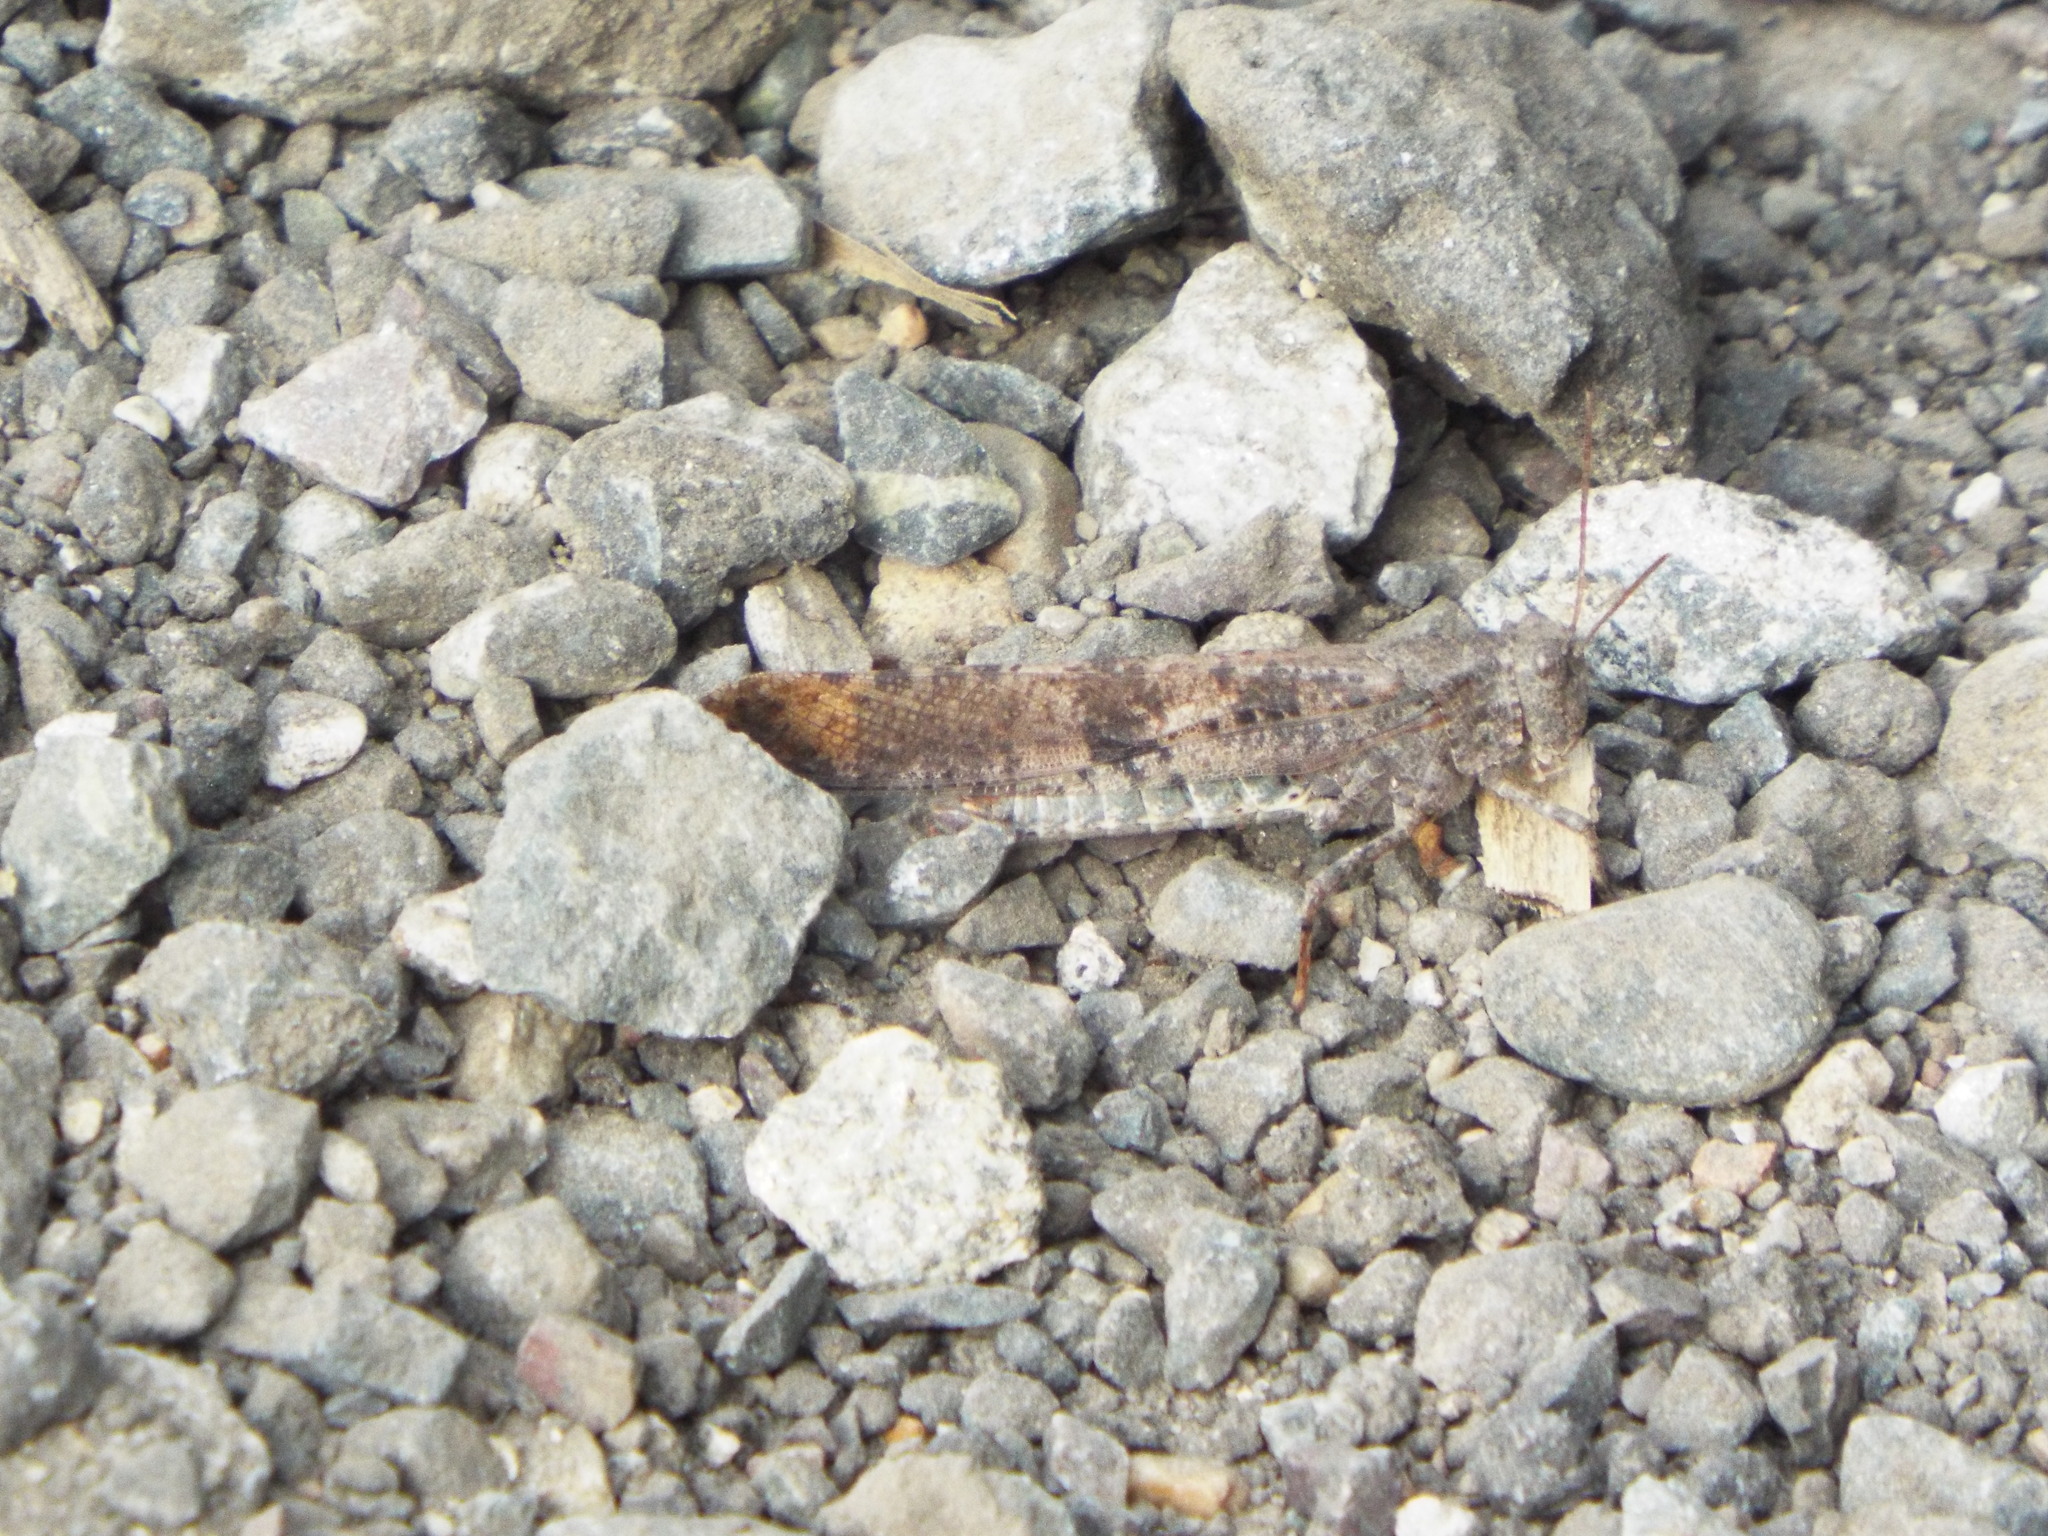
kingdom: Animalia
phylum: Arthropoda
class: Insecta
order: Orthoptera
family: Acrididae
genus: Dissosteira
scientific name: Dissosteira carolina
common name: Carolina grasshopper
